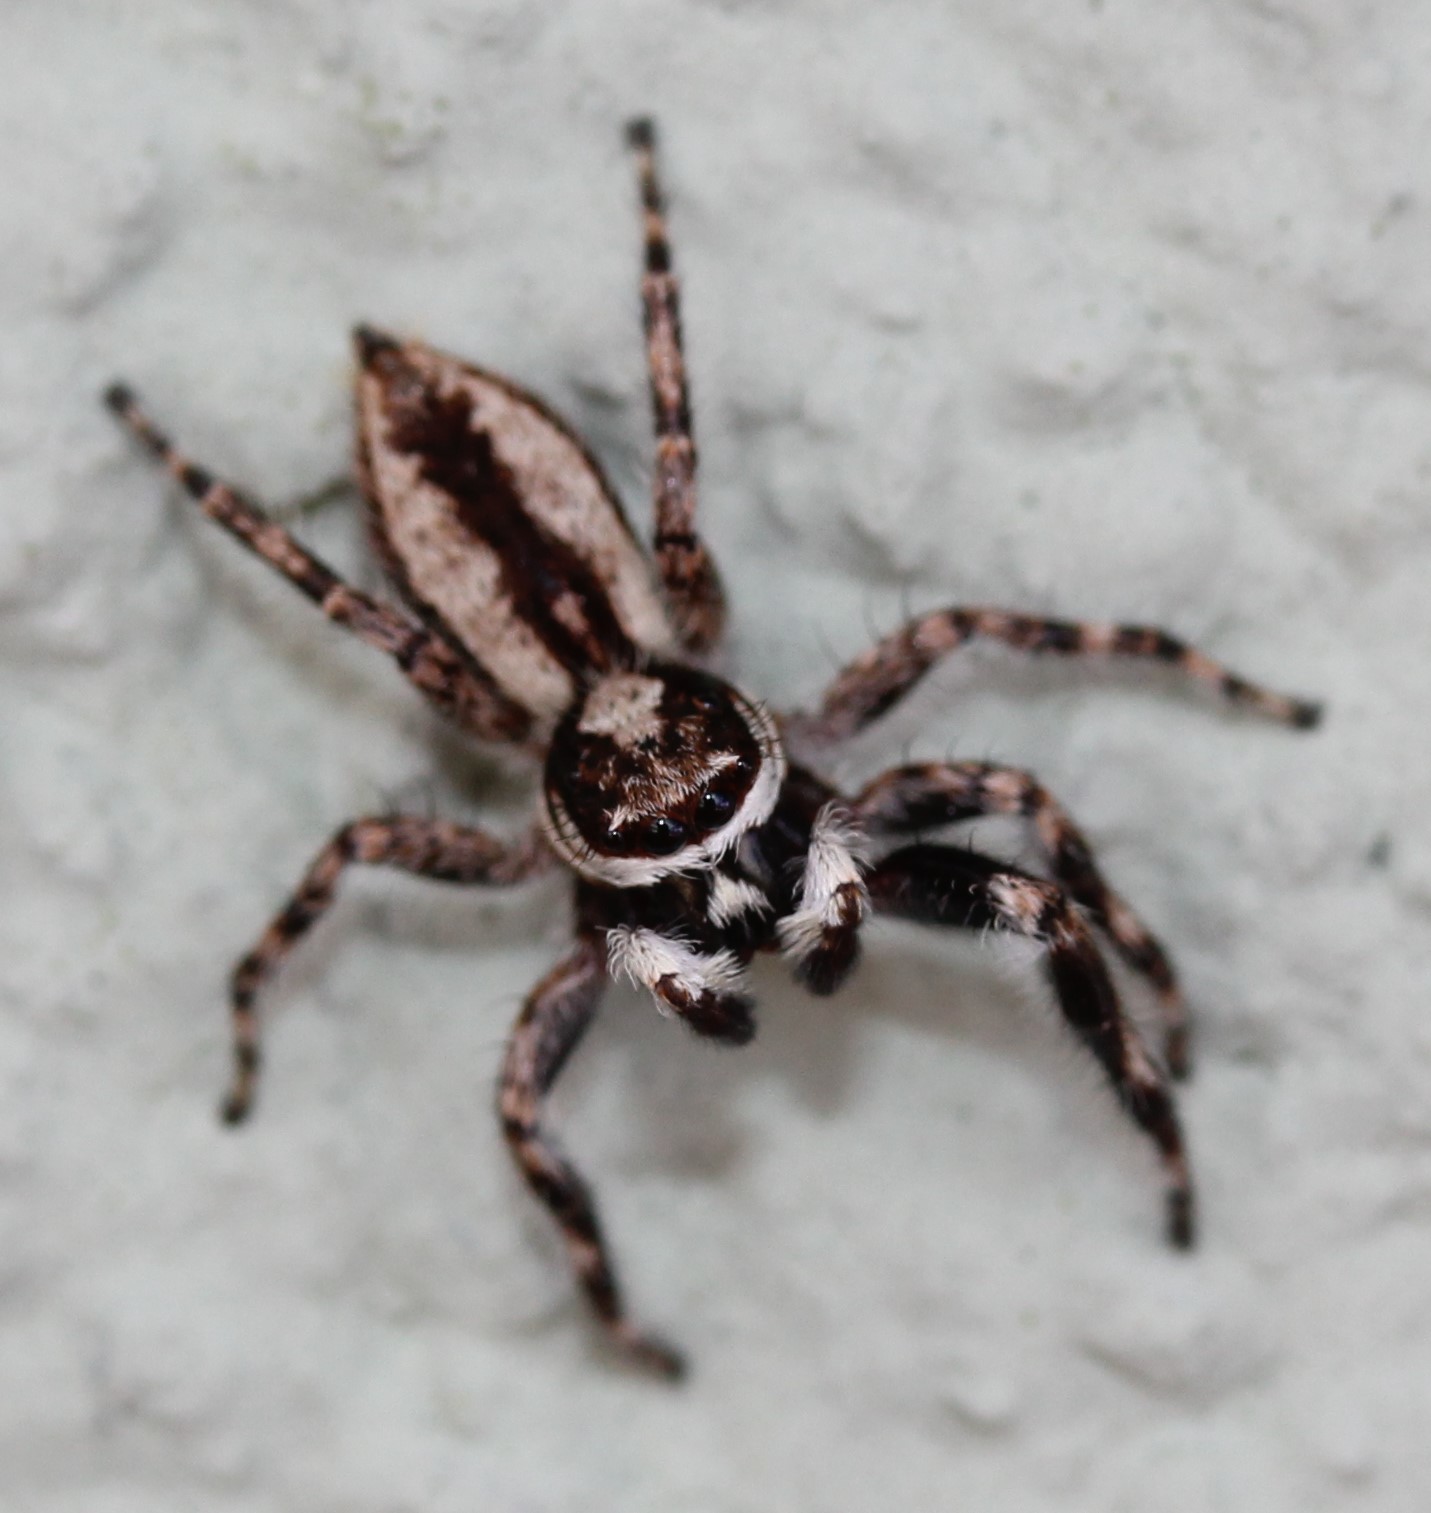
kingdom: Animalia
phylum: Arthropoda
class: Arachnida
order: Araneae
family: Salticidae
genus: Menemerus
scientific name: Menemerus bivittatus
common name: Gray wall jumper
